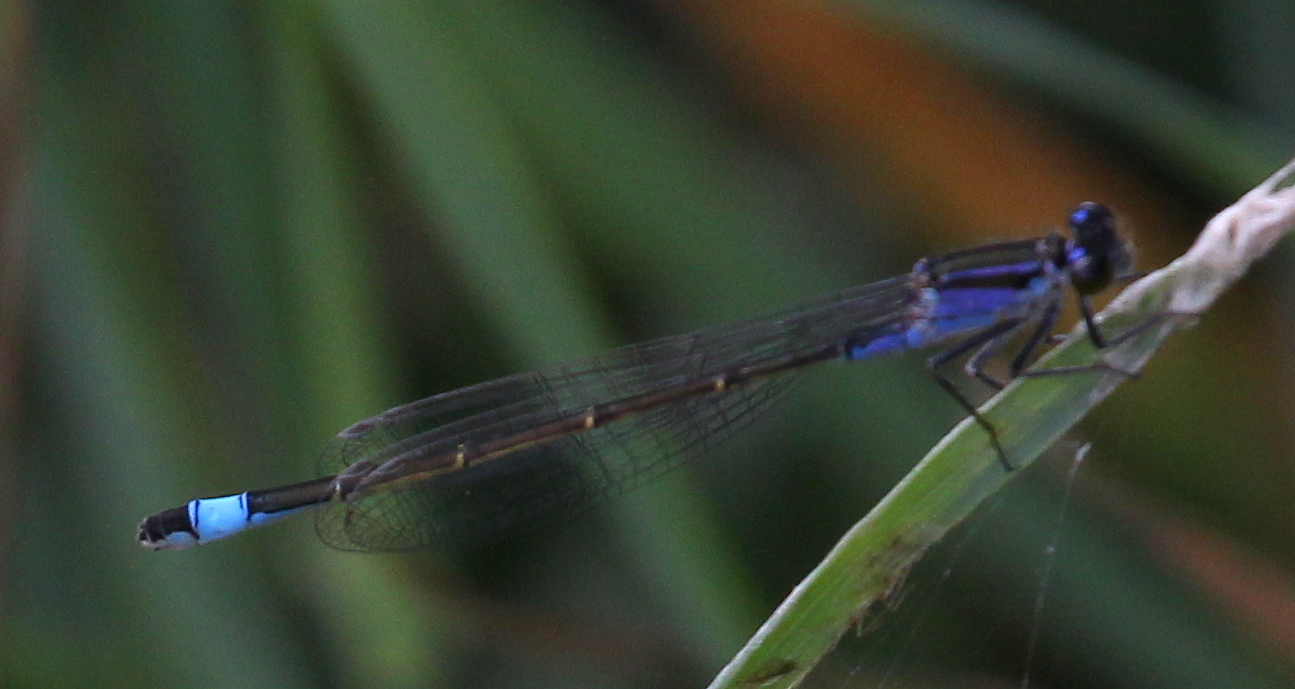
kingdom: Animalia
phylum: Arthropoda
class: Insecta
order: Odonata
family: Coenagrionidae
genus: Ischnura
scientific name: Ischnura elegans
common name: Blue-tailed damselfly
